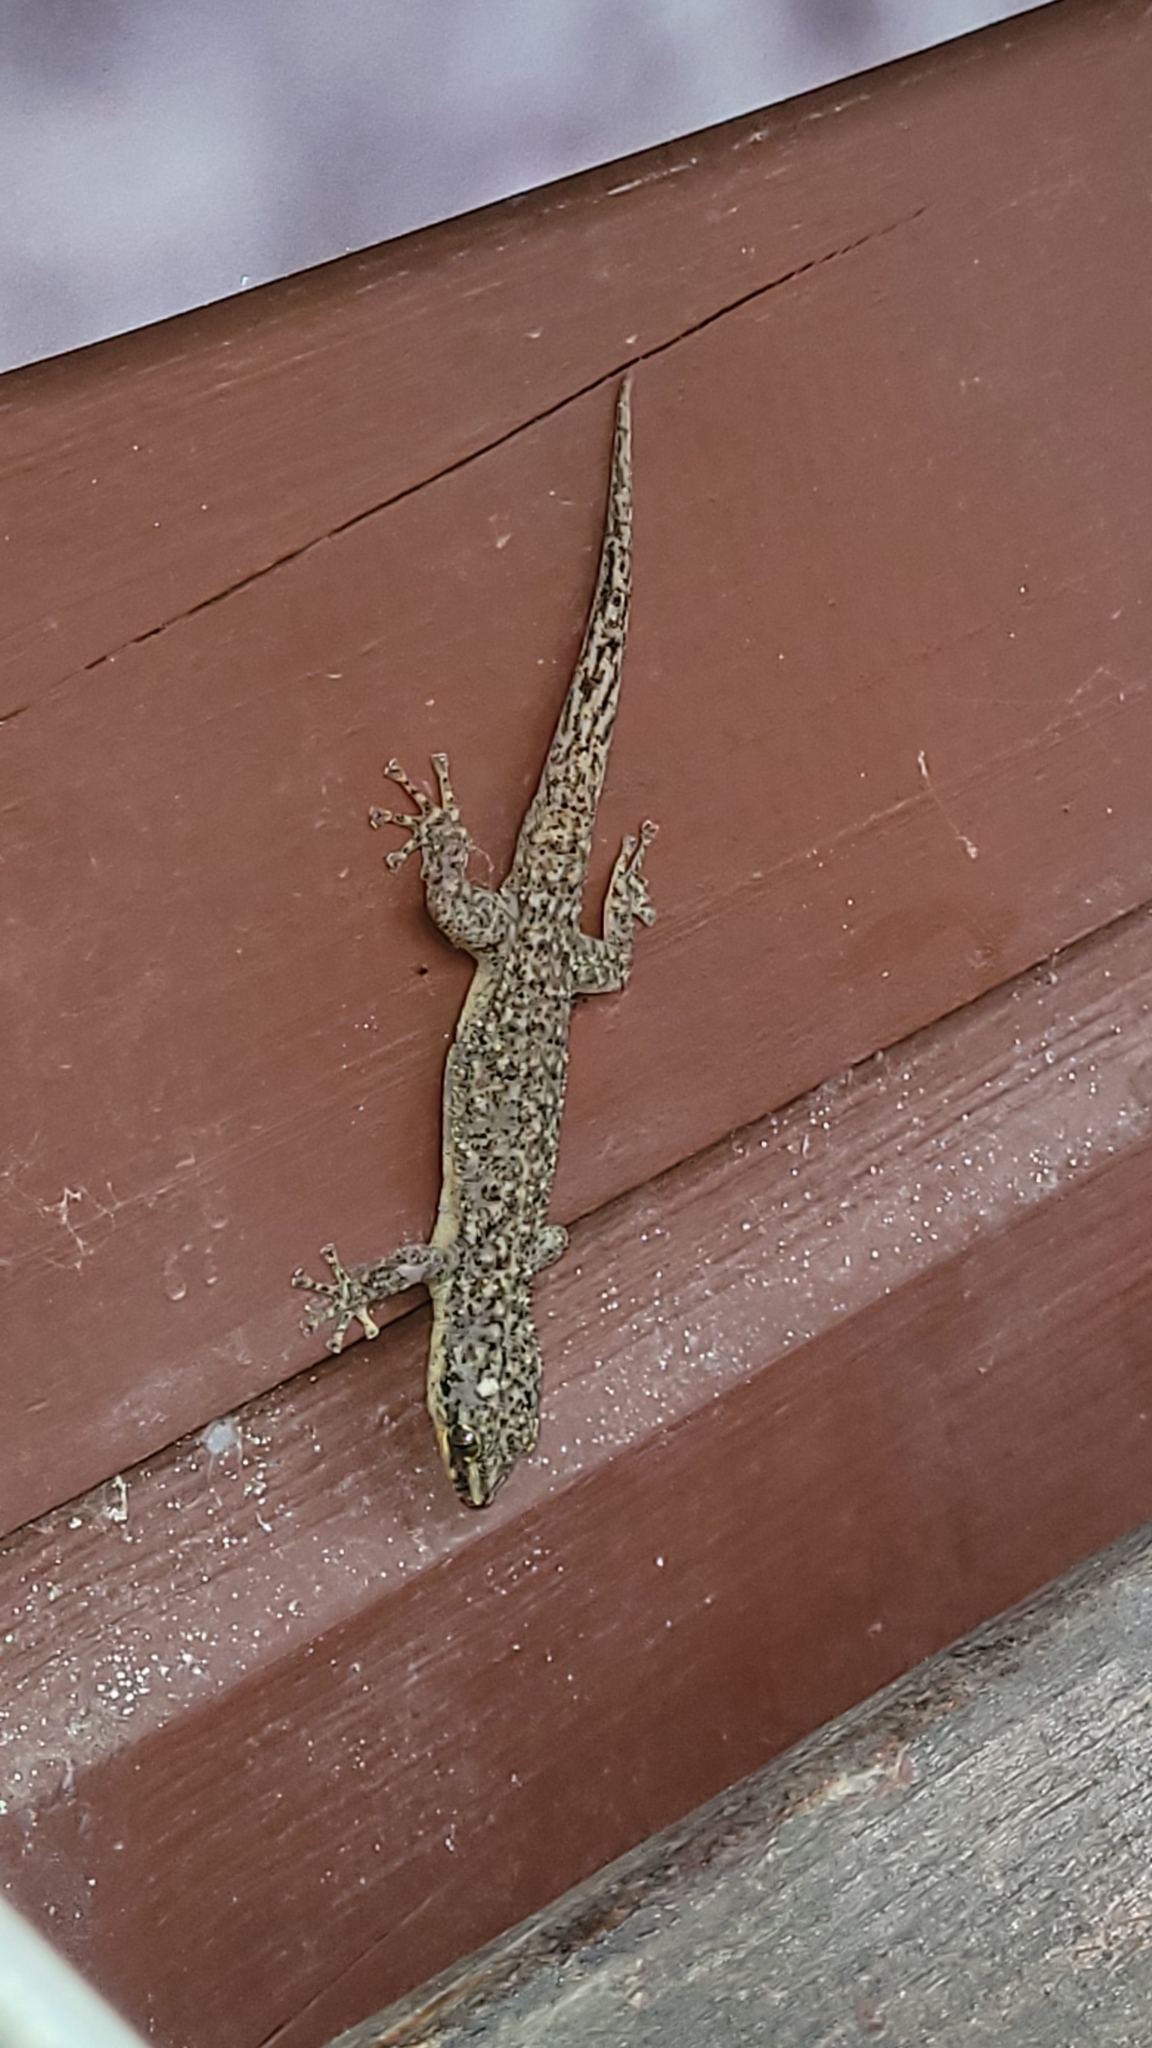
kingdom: Animalia
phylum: Chordata
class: Squamata
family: Phyllodactylidae
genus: Phyllodactylus
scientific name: Phyllodactylus palmeus
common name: Honduras leaf-toed gecko
